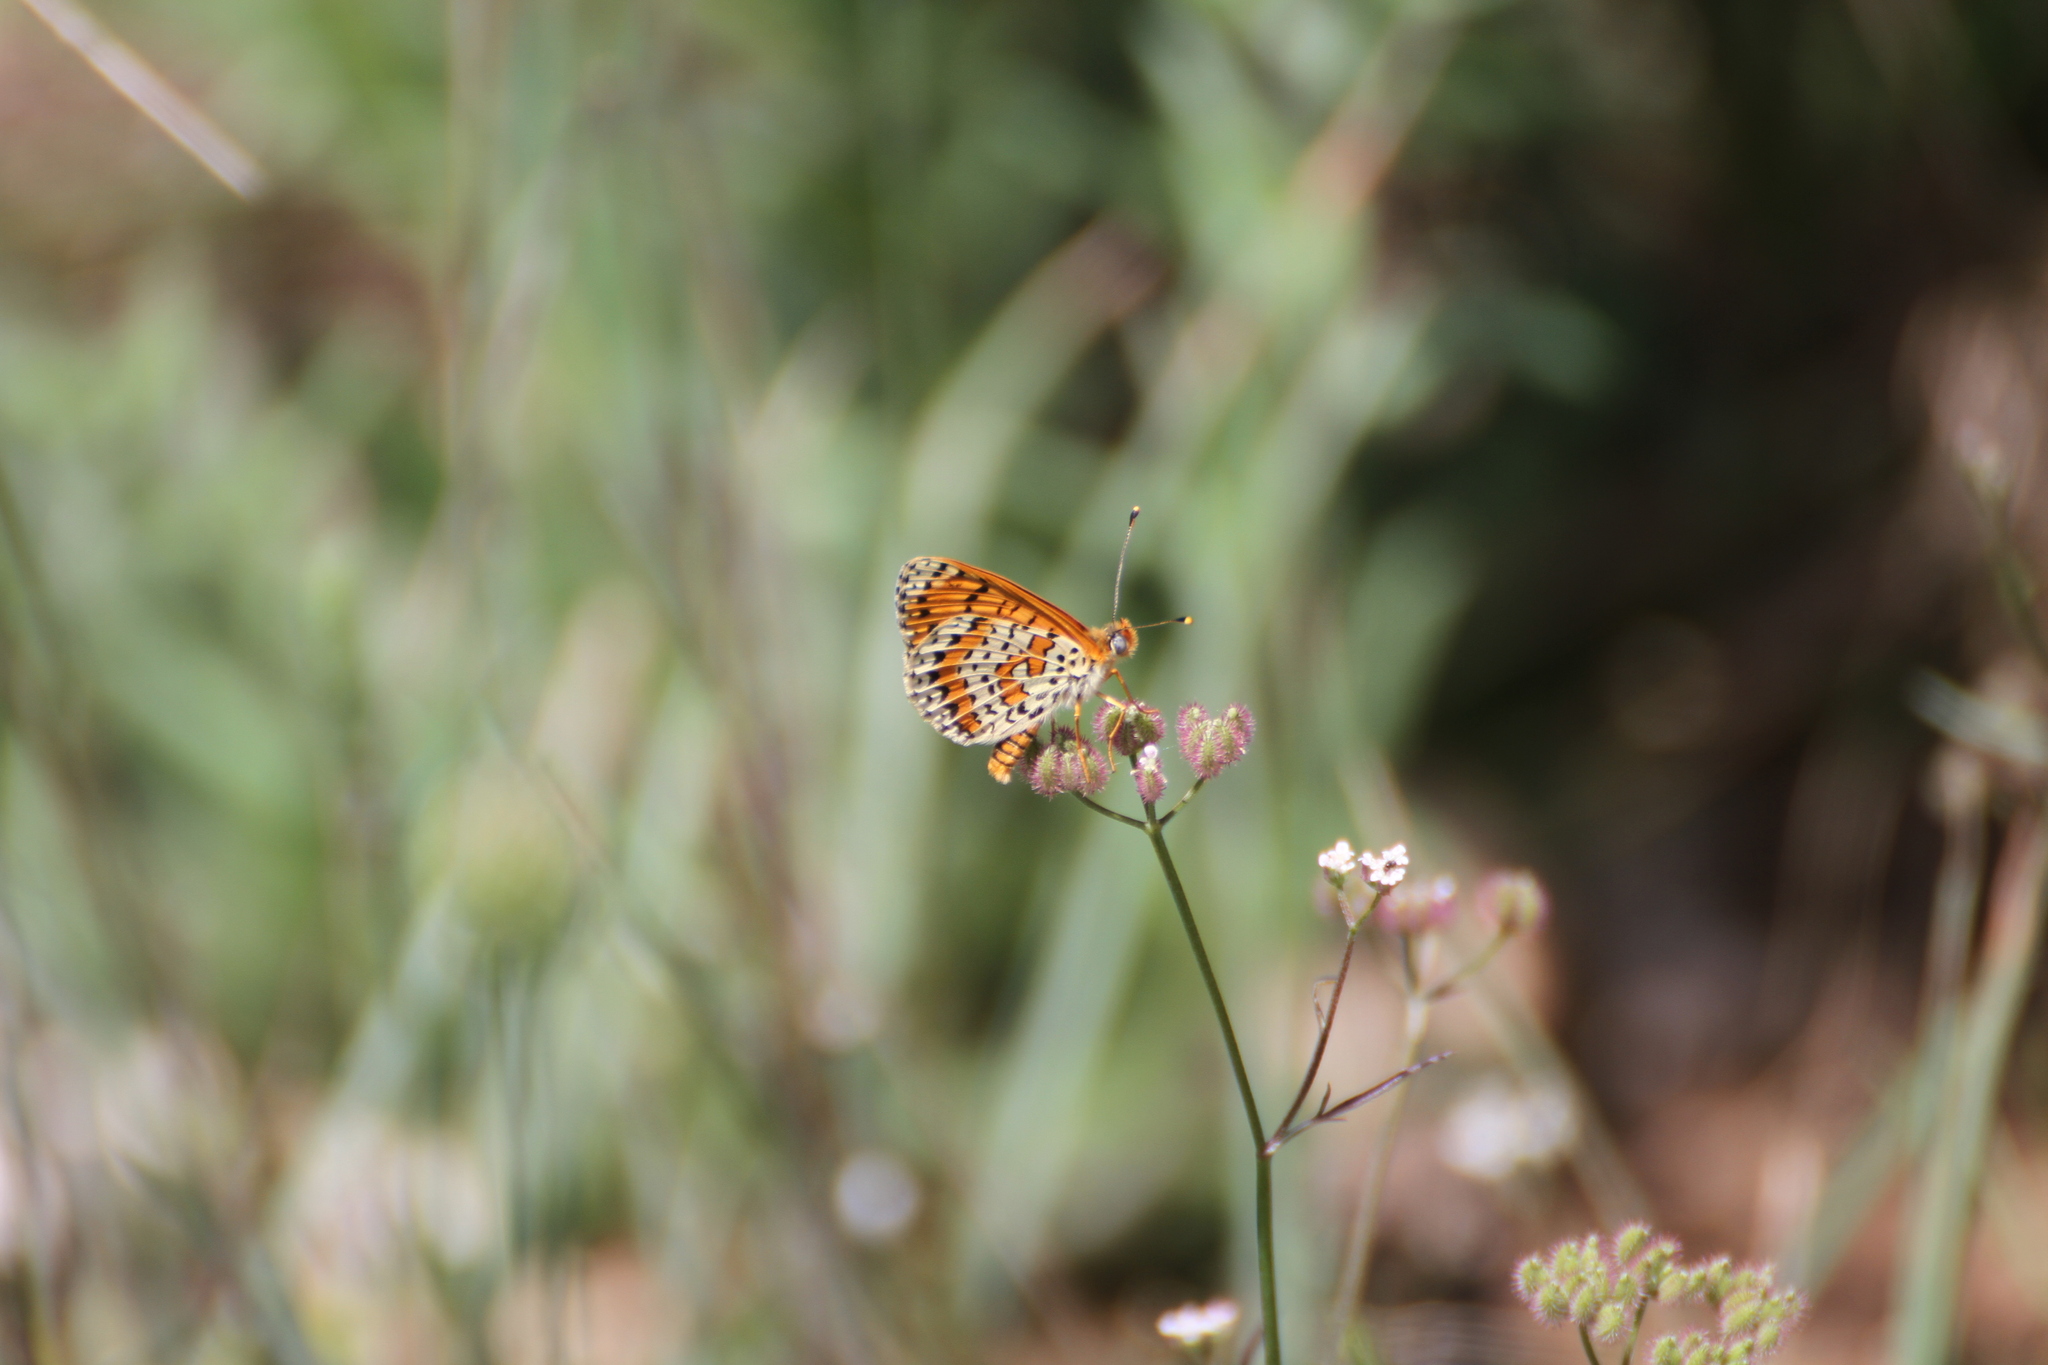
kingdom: Animalia
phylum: Arthropoda
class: Insecta
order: Lepidoptera
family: Nymphalidae
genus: Melitaea
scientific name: Melitaea didyma
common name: Spotted fritillary
